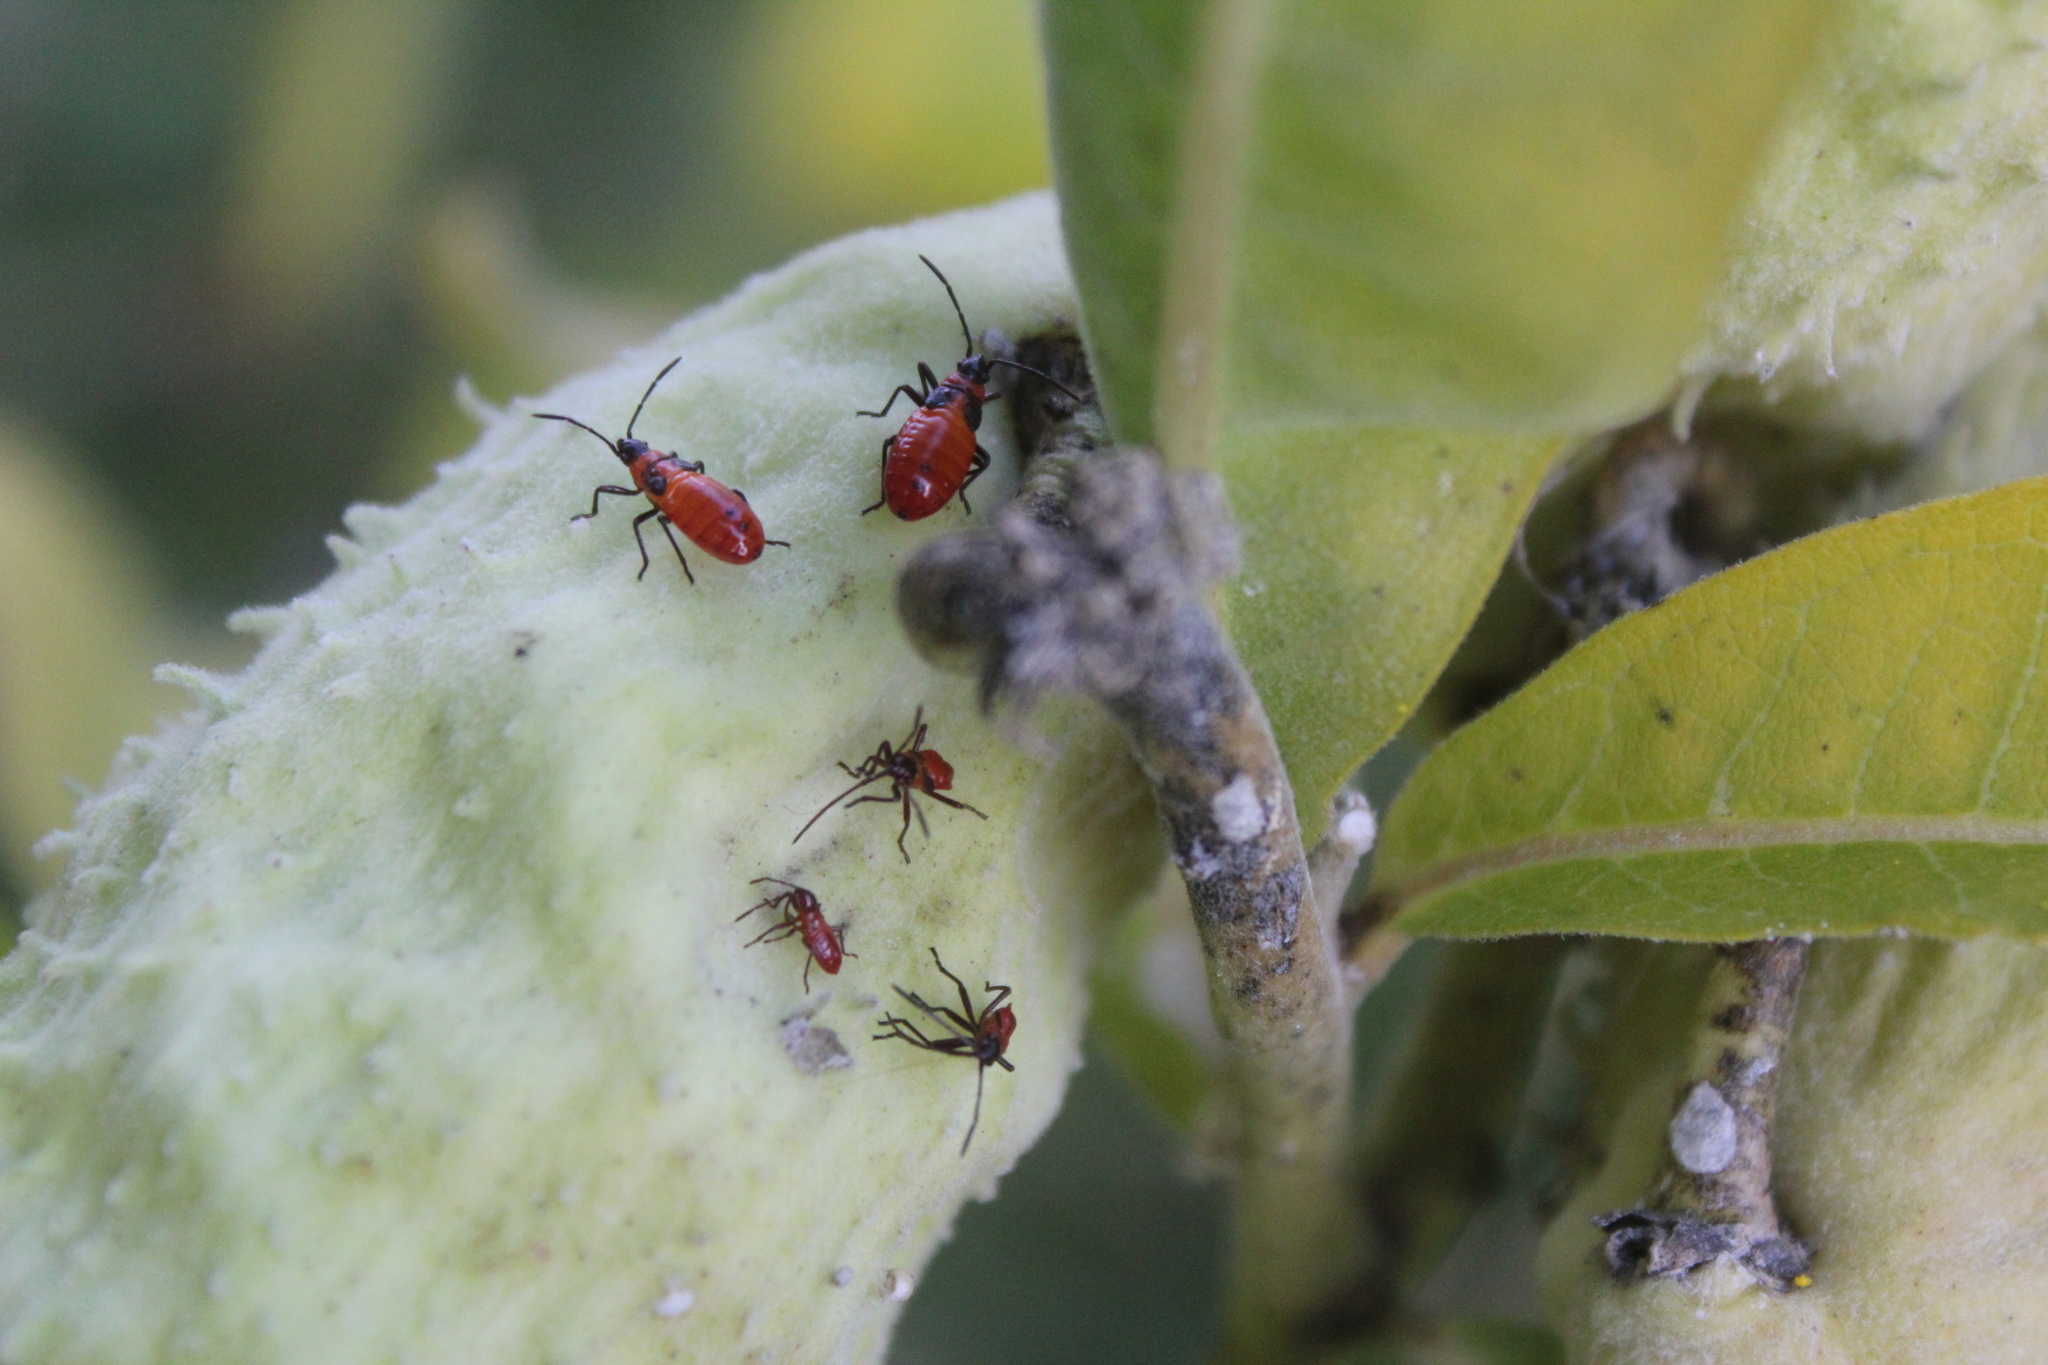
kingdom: Animalia
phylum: Arthropoda
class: Insecta
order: Hemiptera
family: Lygaeidae
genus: Oncopeltus
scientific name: Oncopeltus fasciatus
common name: Large milkweed bug
